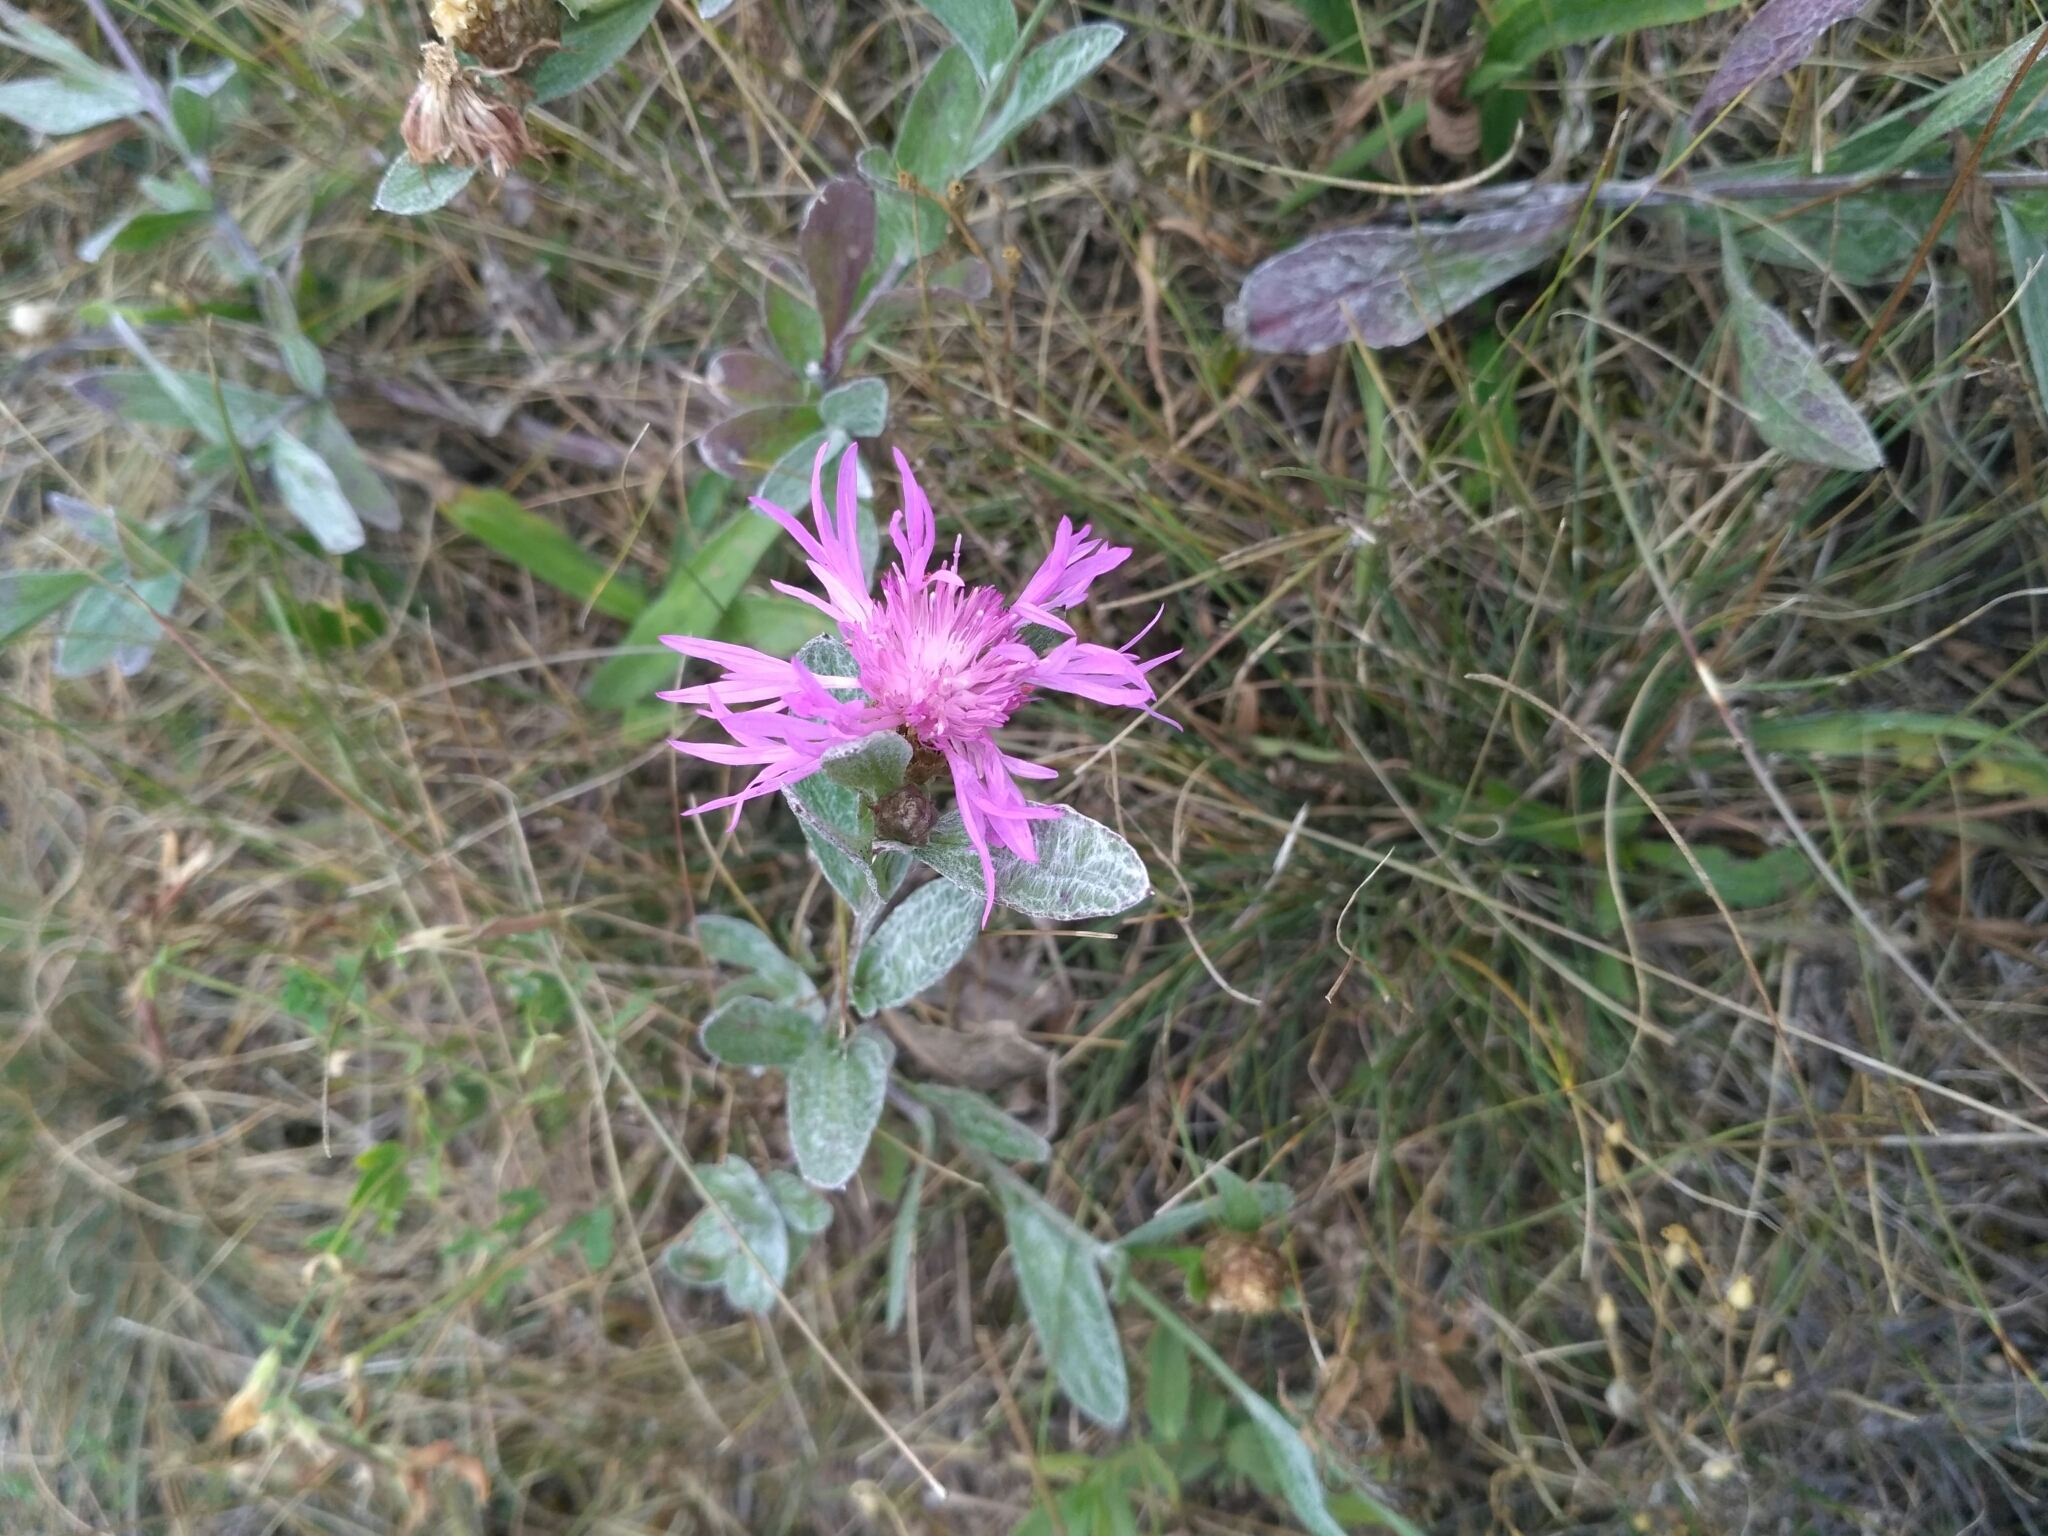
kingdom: Plantae
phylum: Tracheophyta
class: Magnoliopsida
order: Asterales
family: Asteraceae
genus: Centaurea
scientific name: Centaurea jacea
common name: Brown knapweed
